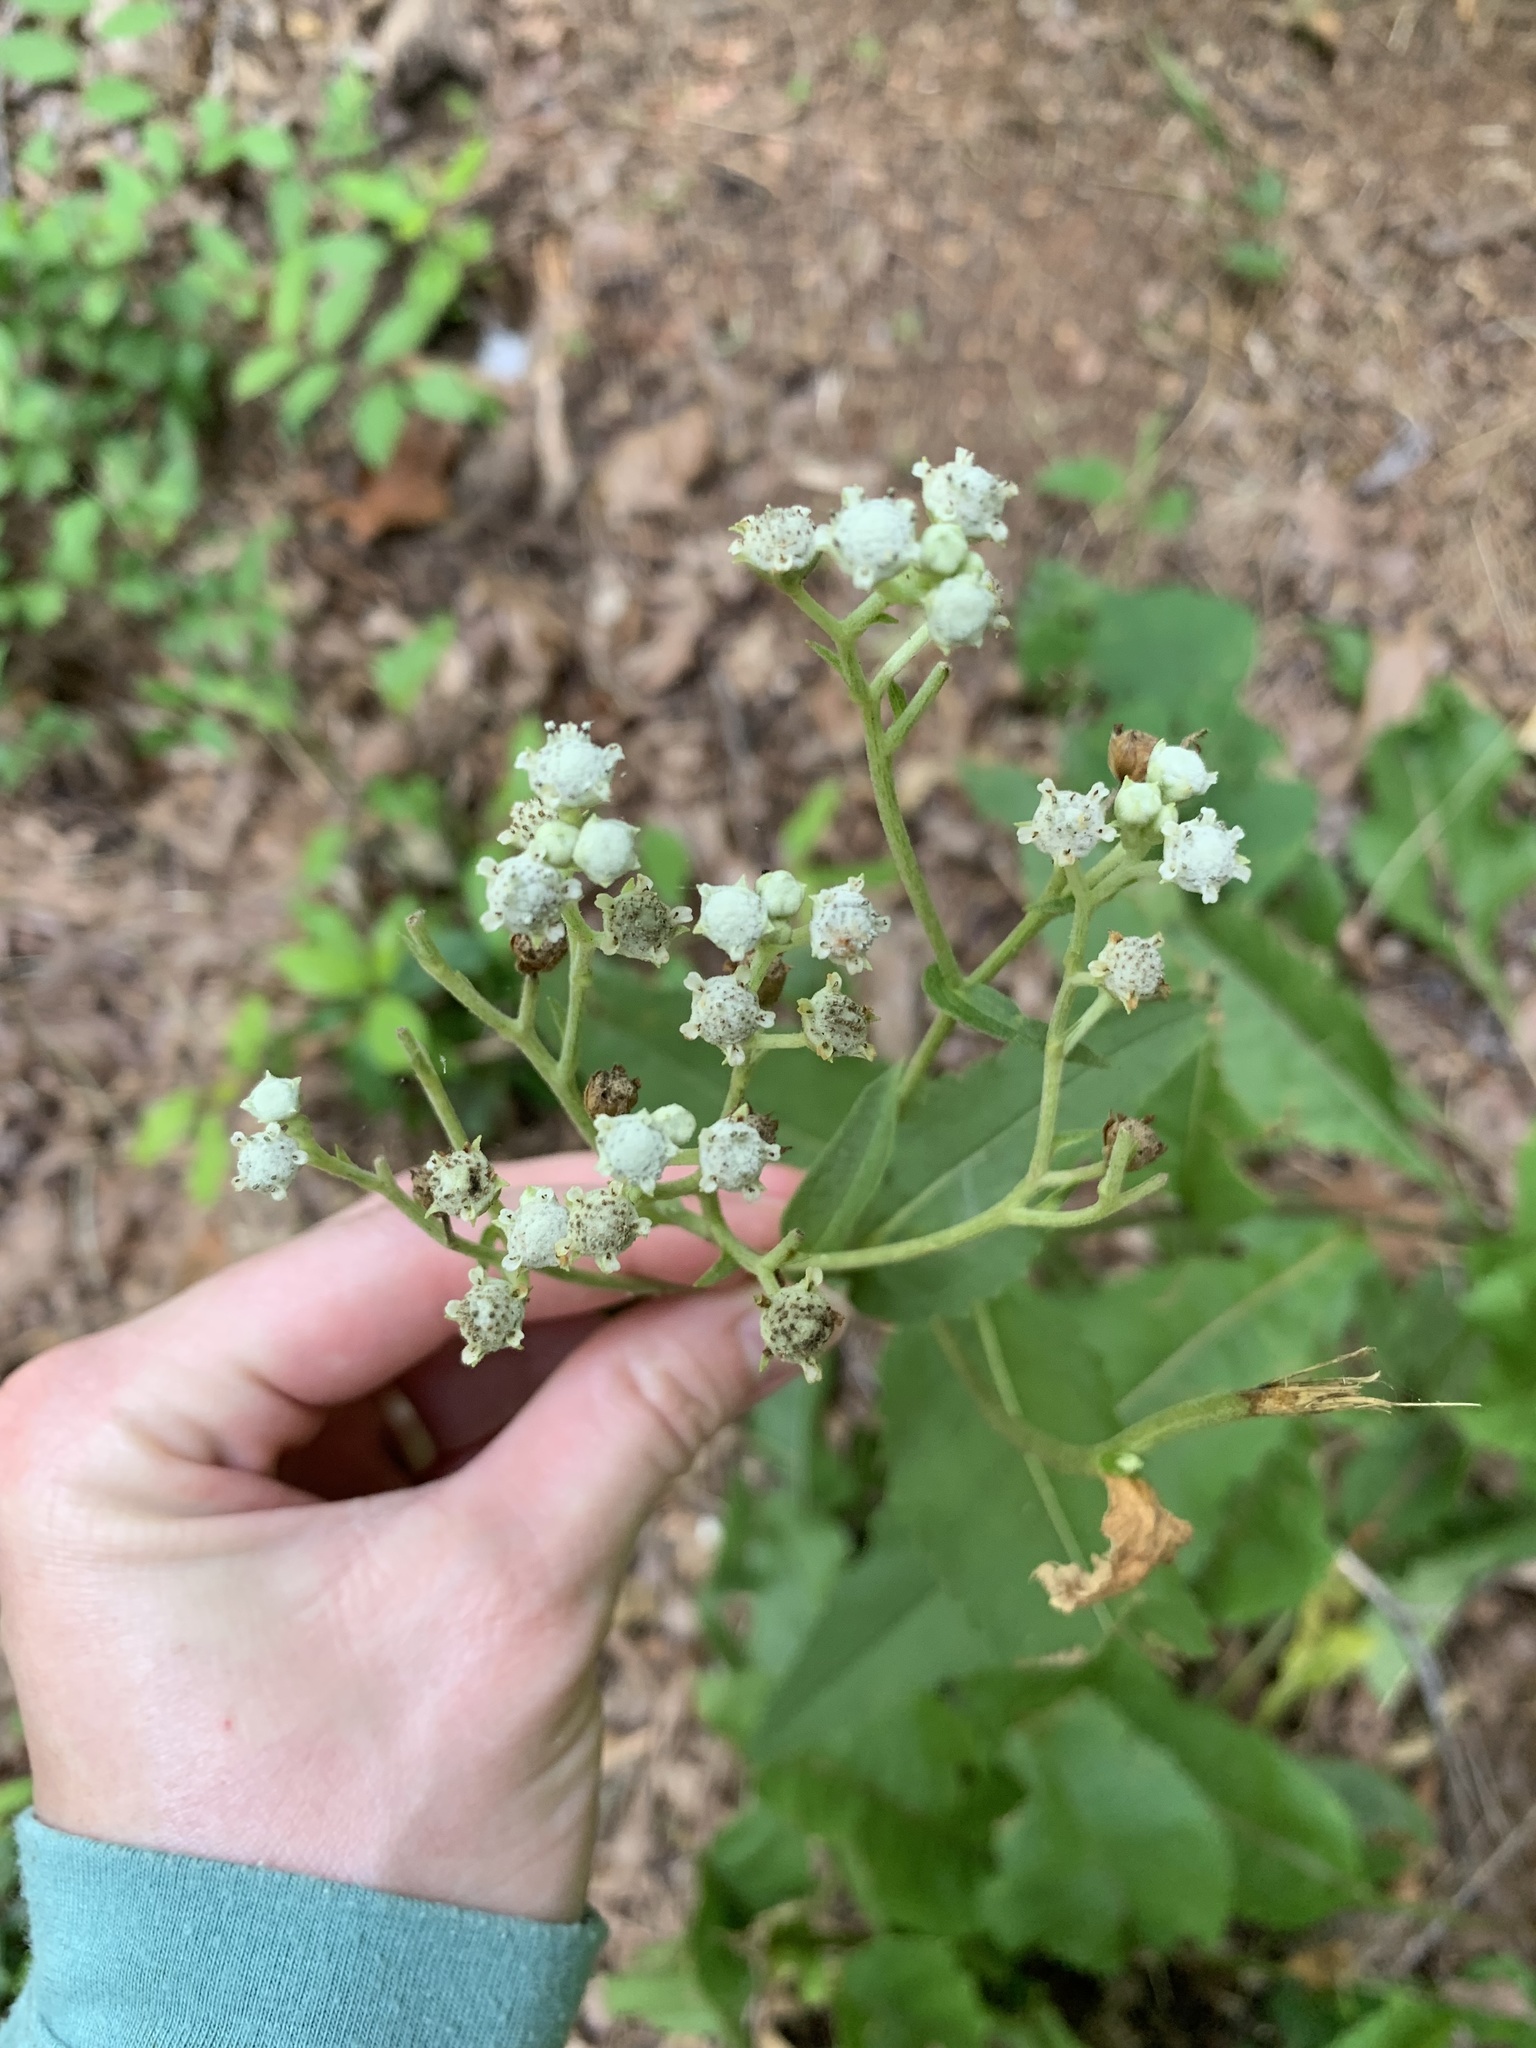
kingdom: Plantae
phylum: Tracheophyta
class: Magnoliopsida
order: Asterales
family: Asteraceae
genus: Parthenium
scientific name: Parthenium integrifolium
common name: American feverfew
